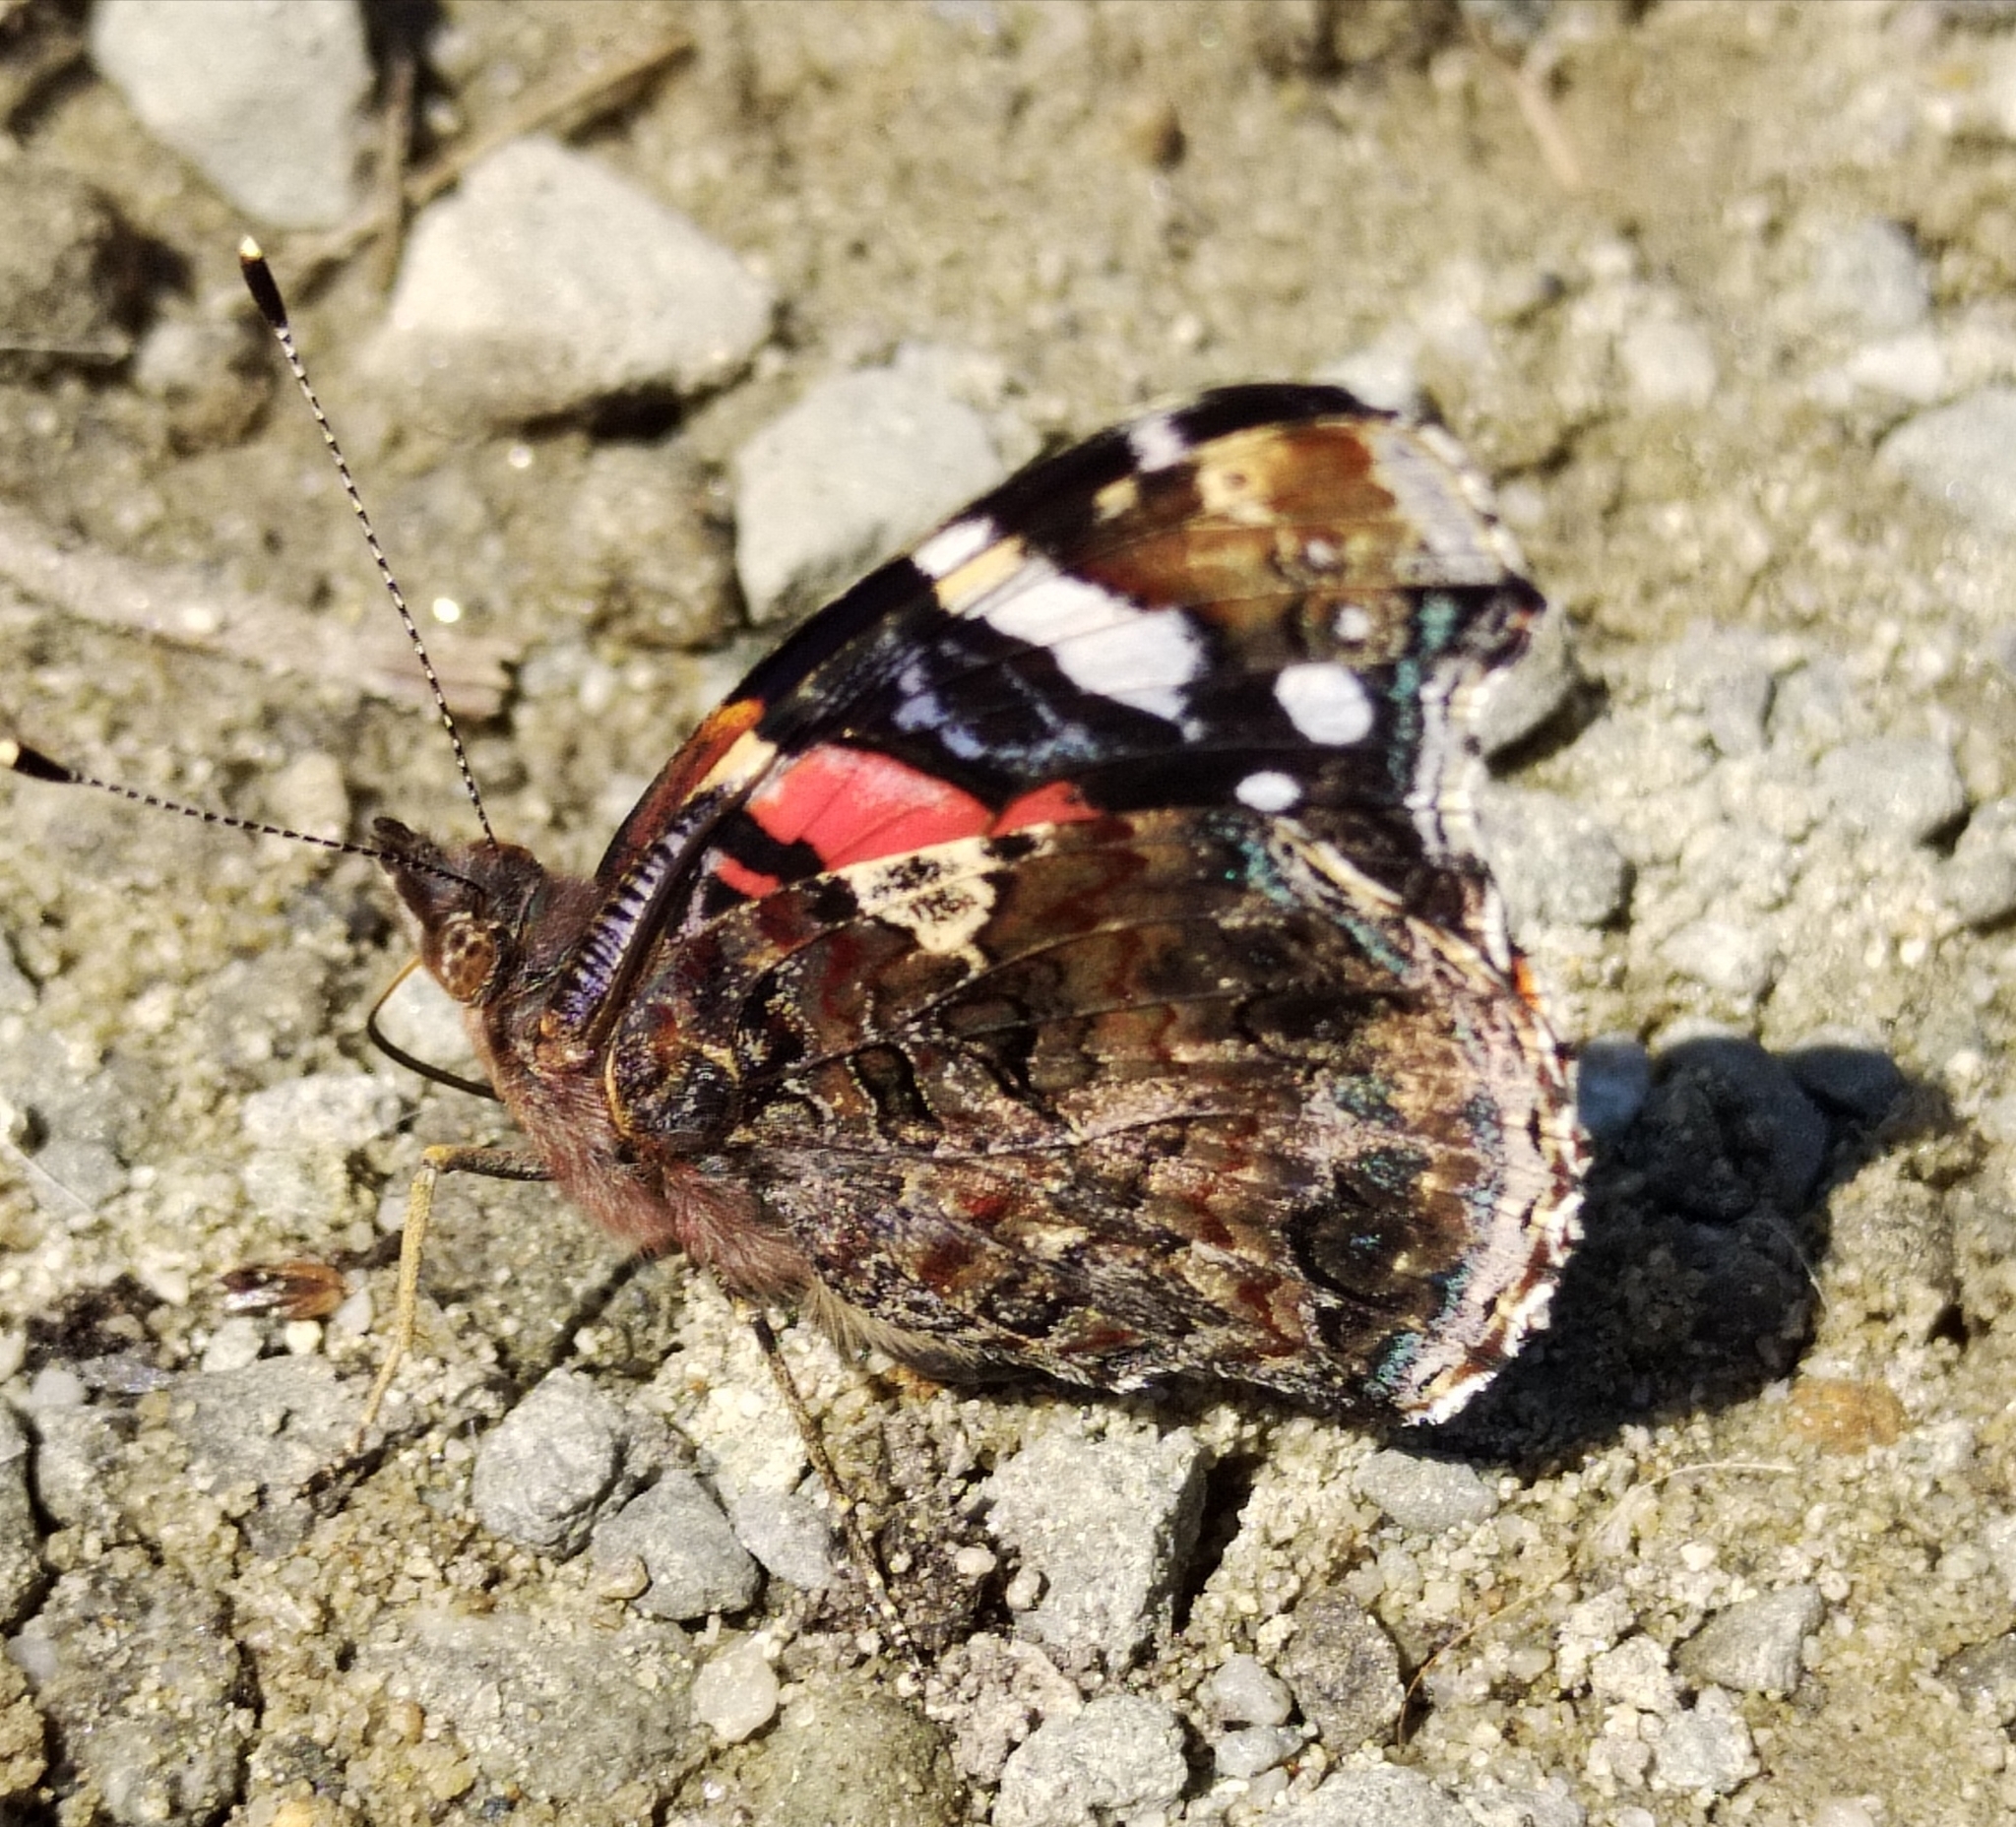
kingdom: Animalia
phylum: Arthropoda
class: Insecta
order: Lepidoptera
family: Nymphalidae
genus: Vanessa
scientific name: Vanessa atalanta
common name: Red admiral
